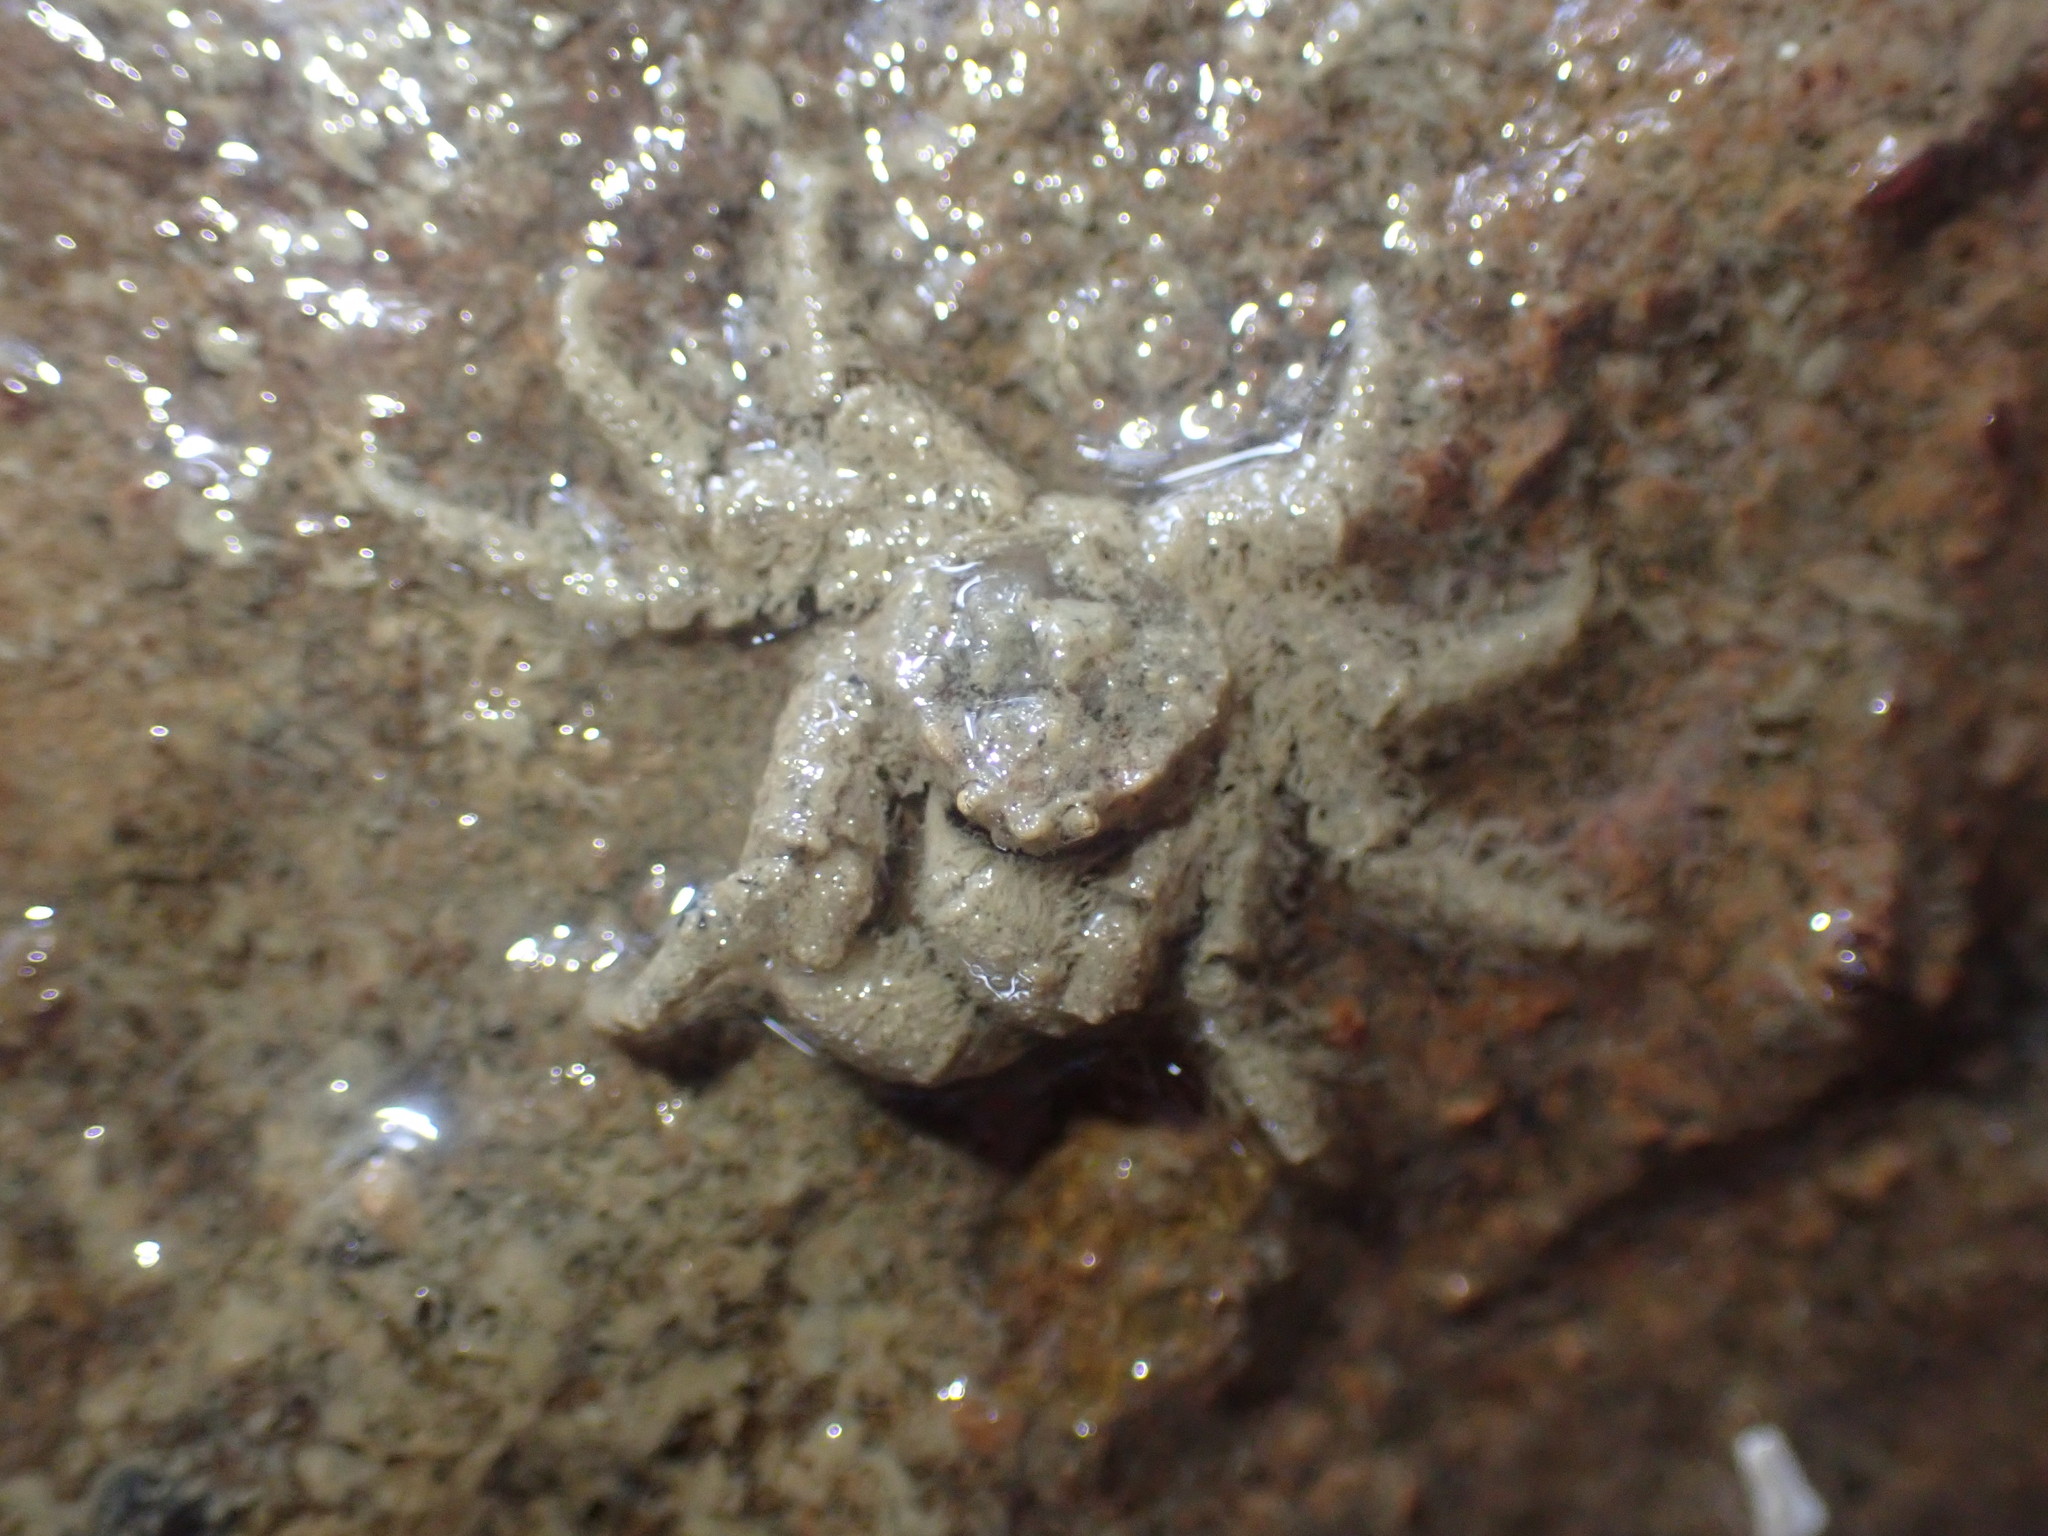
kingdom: Animalia
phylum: Arthropoda
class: Malacostraca
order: Decapoda
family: Hymenosomatidae
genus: Neohymenicus
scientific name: Neohymenicus pubescens
